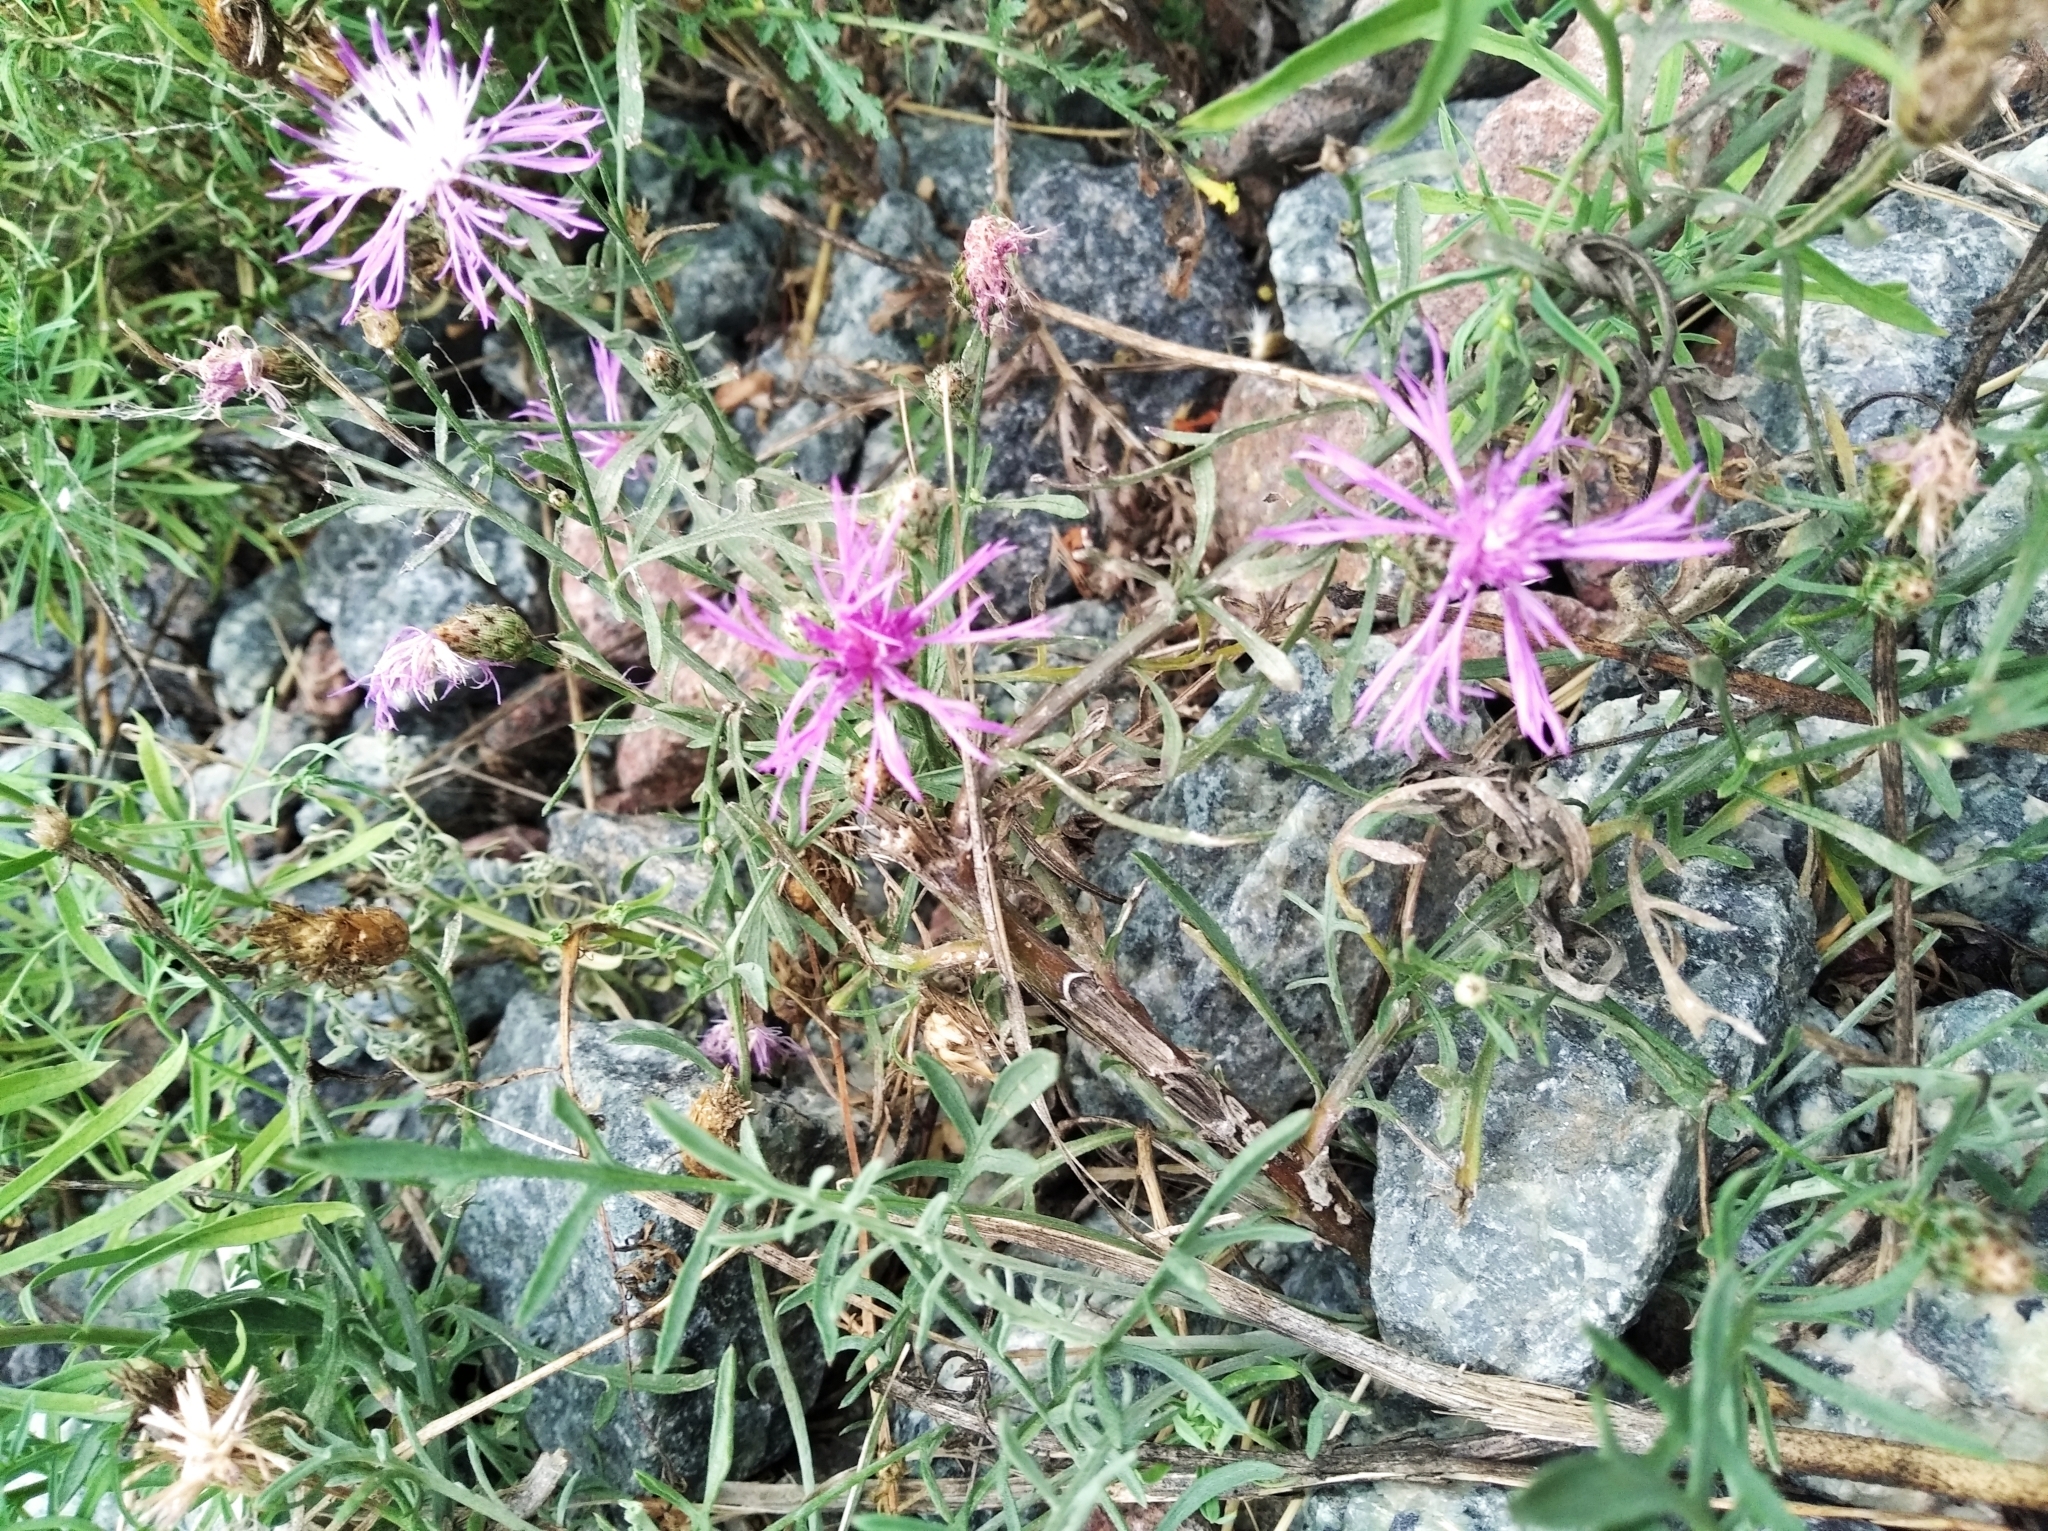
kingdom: Plantae
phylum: Tracheophyta
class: Magnoliopsida
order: Asterales
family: Asteraceae
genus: Centaurea
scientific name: Centaurea stoebe
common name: Spotted knapweed
